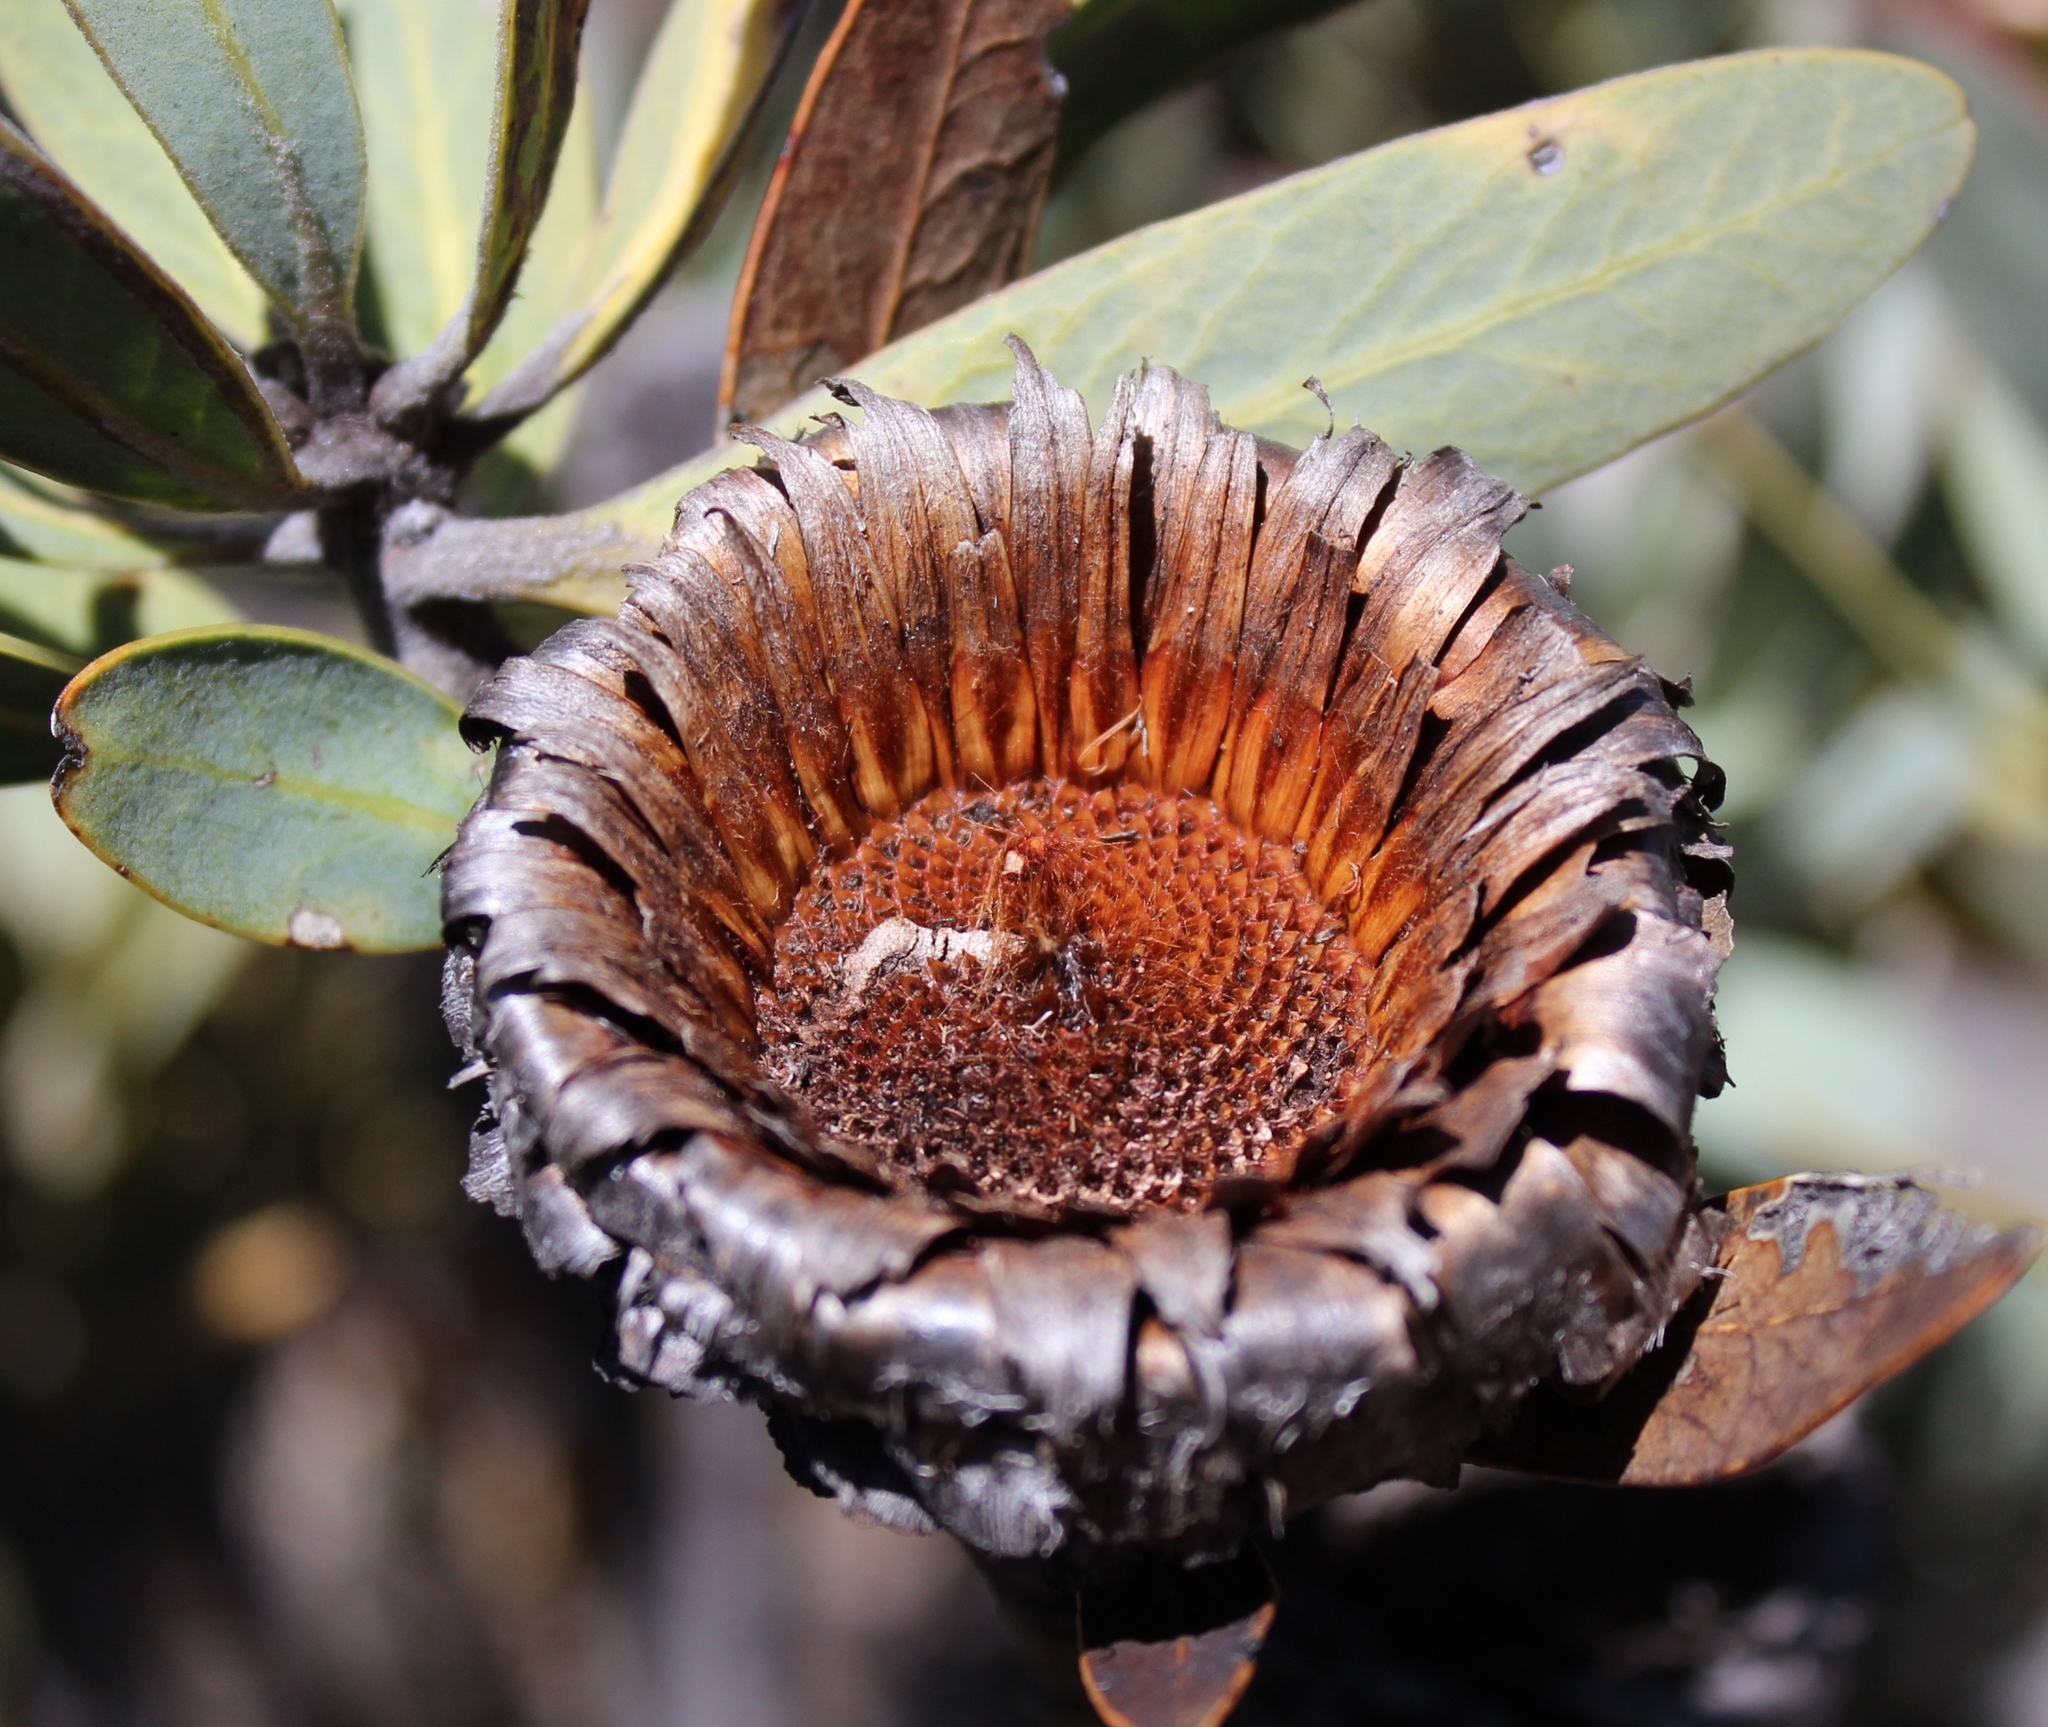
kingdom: Plantae
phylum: Tracheophyta
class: Magnoliopsida
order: Proteales
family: Proteaceae
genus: Protea
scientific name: Protea laurifolia
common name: Grey-leaf sugarbsh
